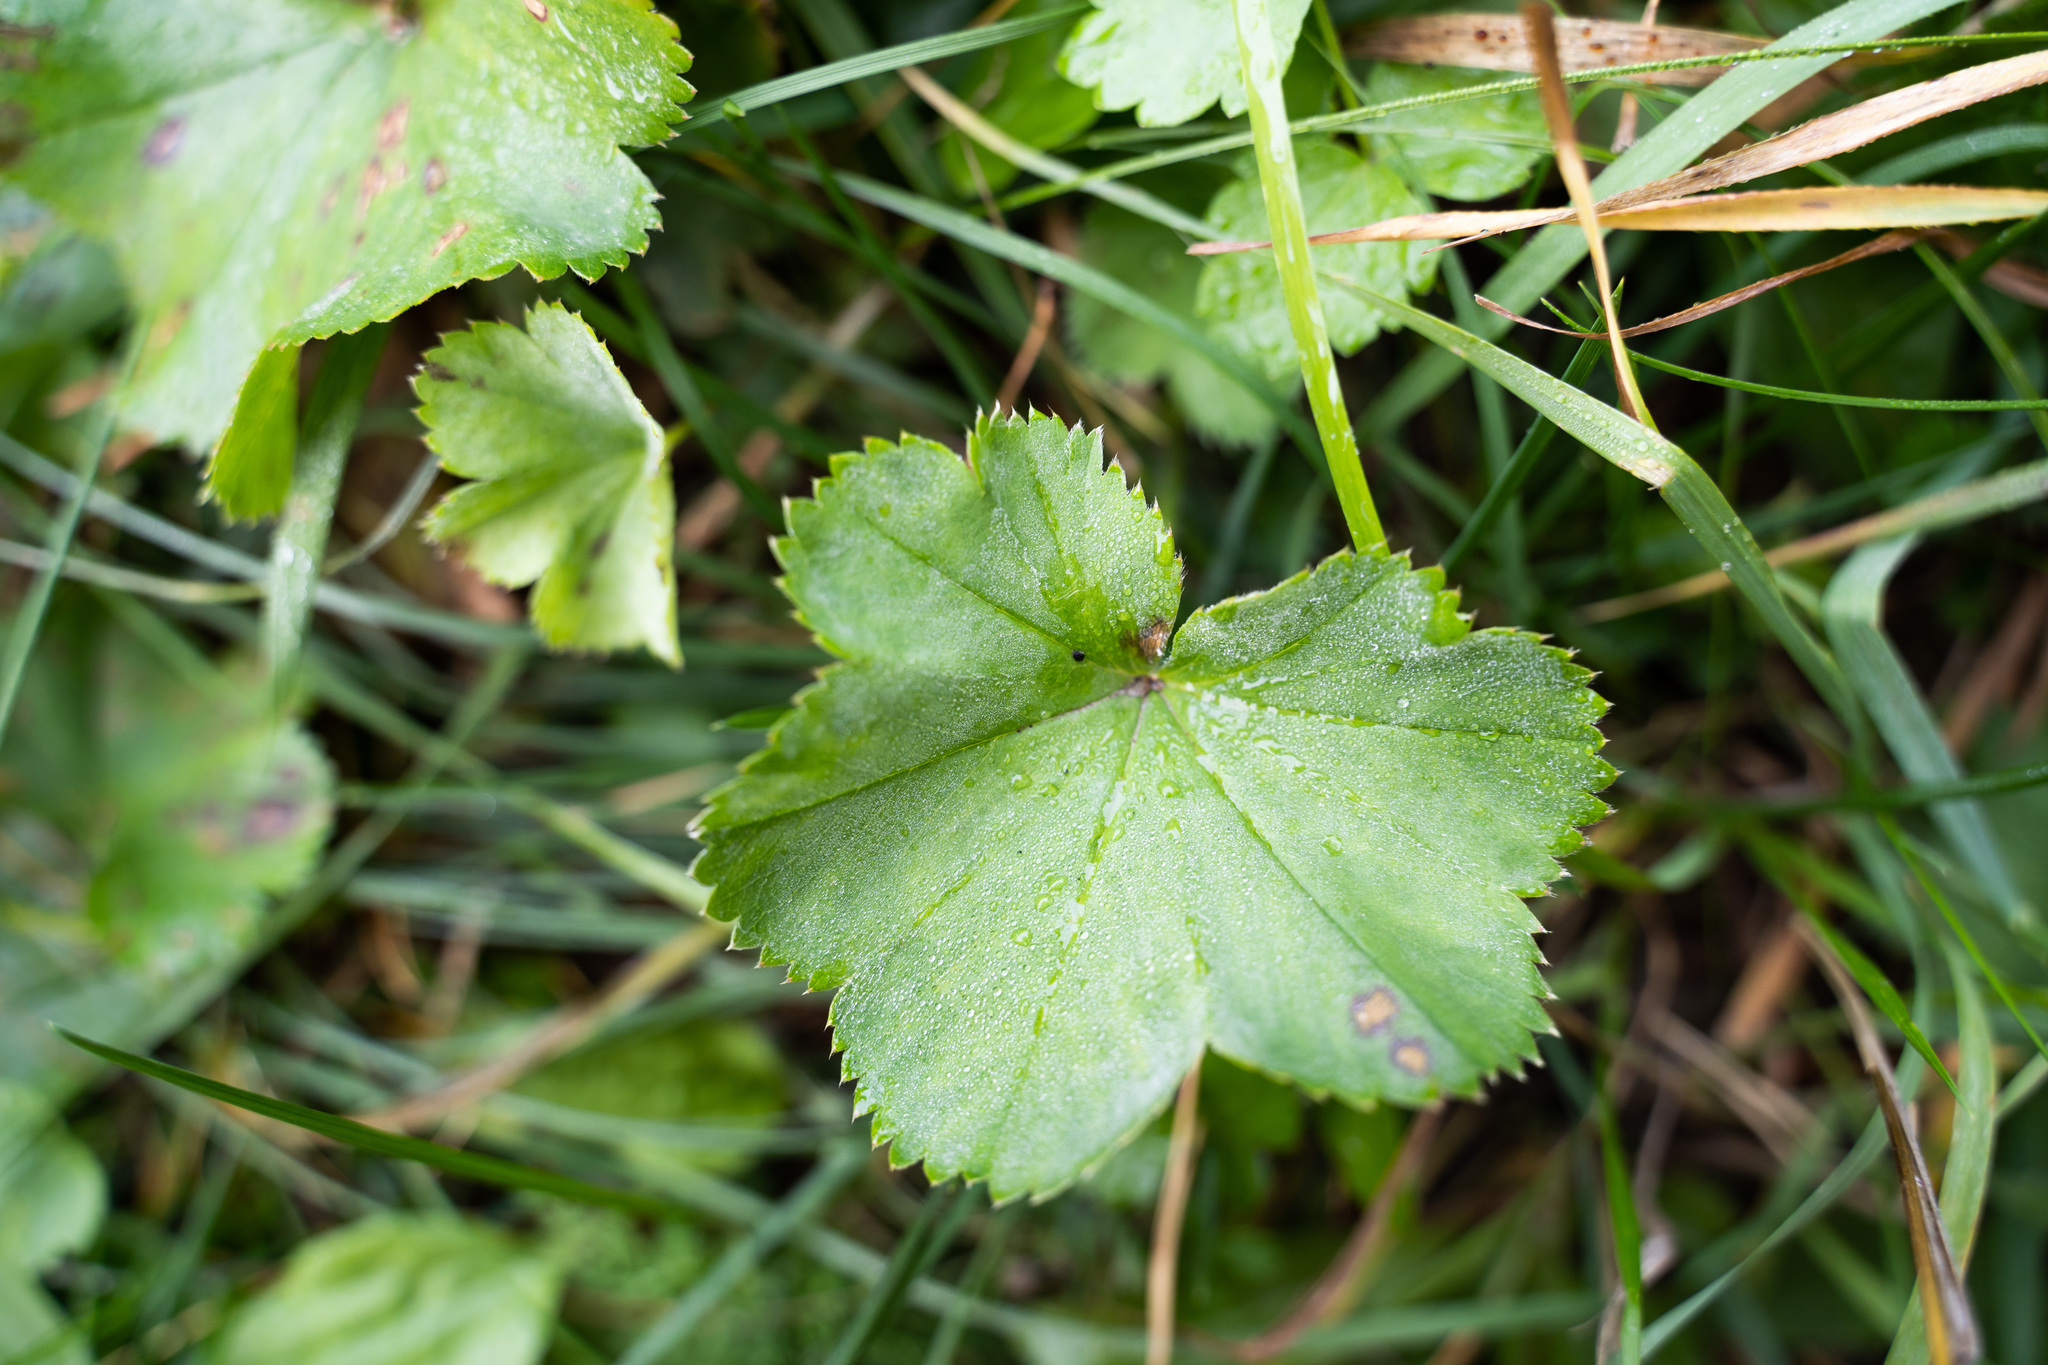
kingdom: Plantae
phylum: Tracheophyta
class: Magnoliopsida
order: Rosales
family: Rosaceae
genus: Alchemilla
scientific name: Alchemilla
